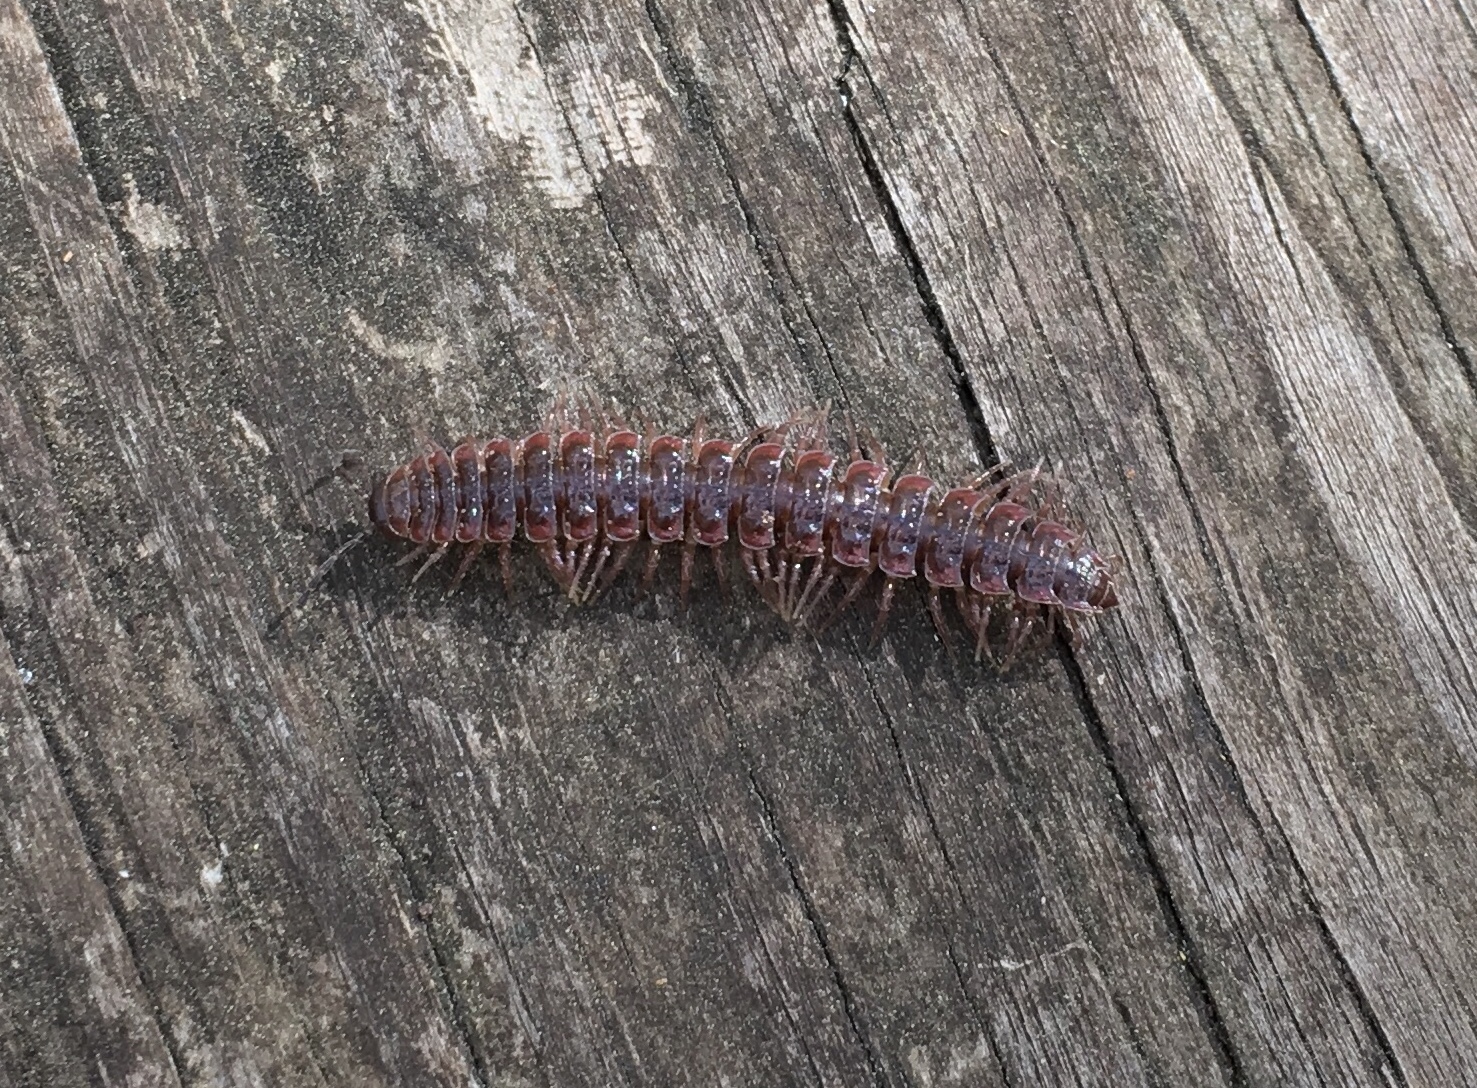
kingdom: Animalia
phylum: Arthropoda
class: Diplopoda
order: Polydesmida
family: Polydesmidae
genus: Pseudopolydesmus
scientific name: Pseudopolydesmus serratus
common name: Common pink flat-back millipede
